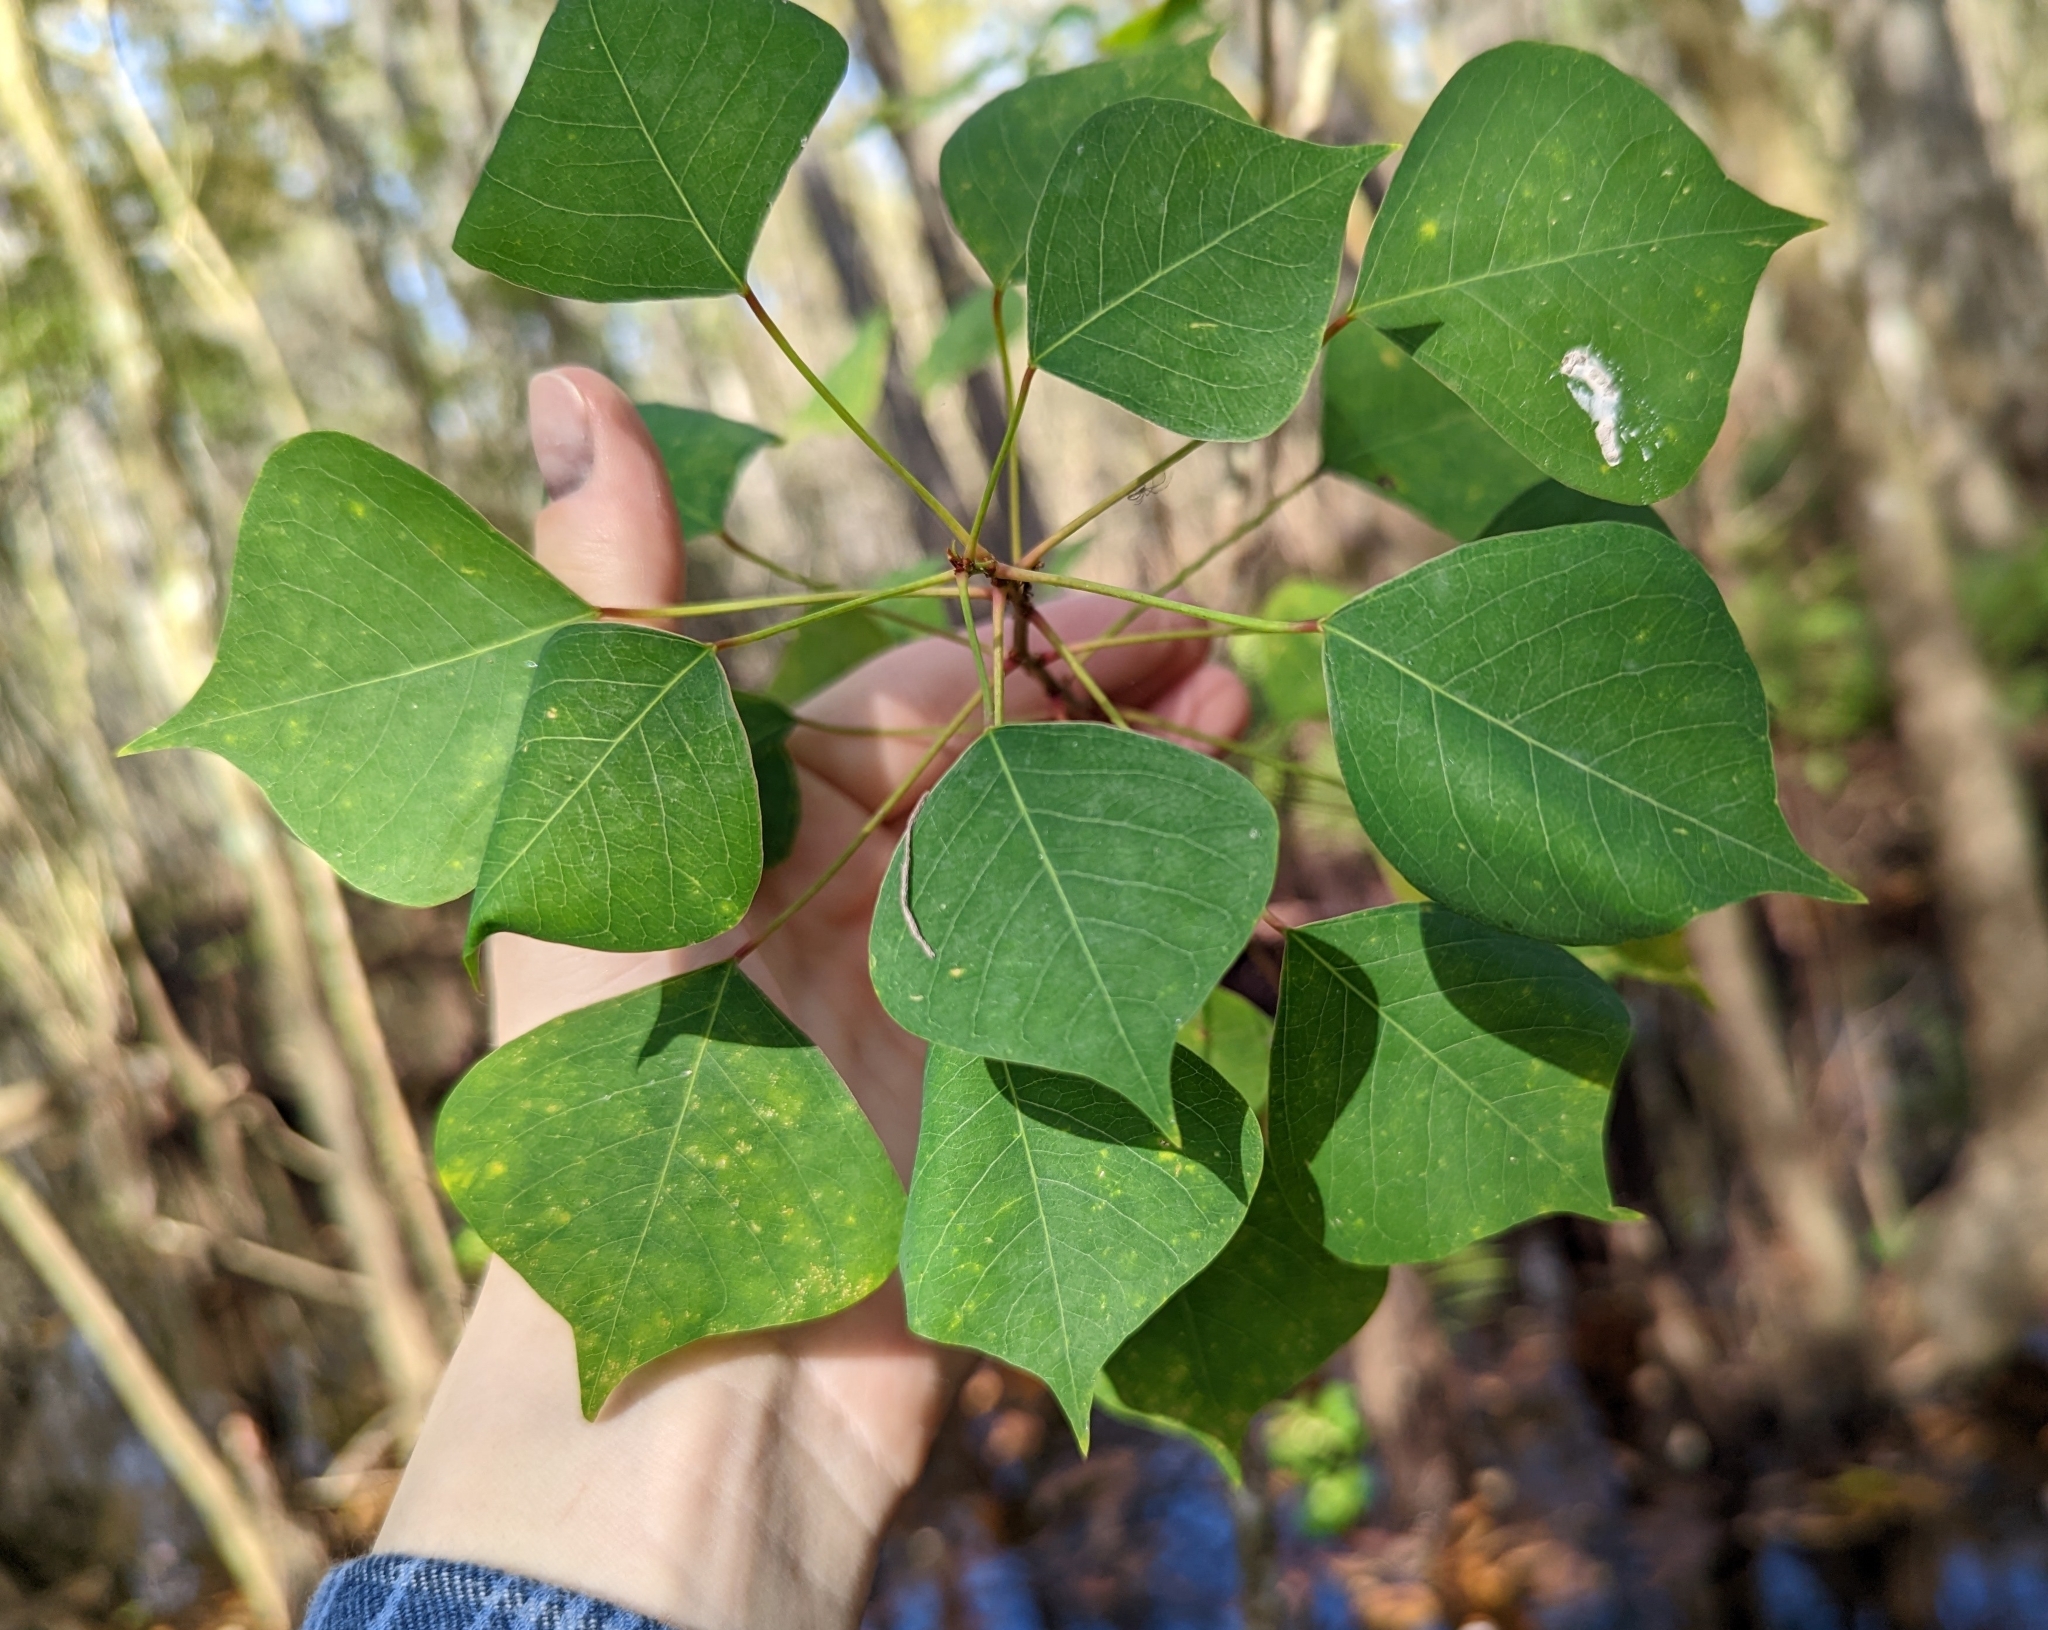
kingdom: Plantae
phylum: Tracheophyta
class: Magnoliopsida
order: Malpighiales
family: Euphorbiaceae
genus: Triadica
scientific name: Triadica sebifera
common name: Chinese tallow
